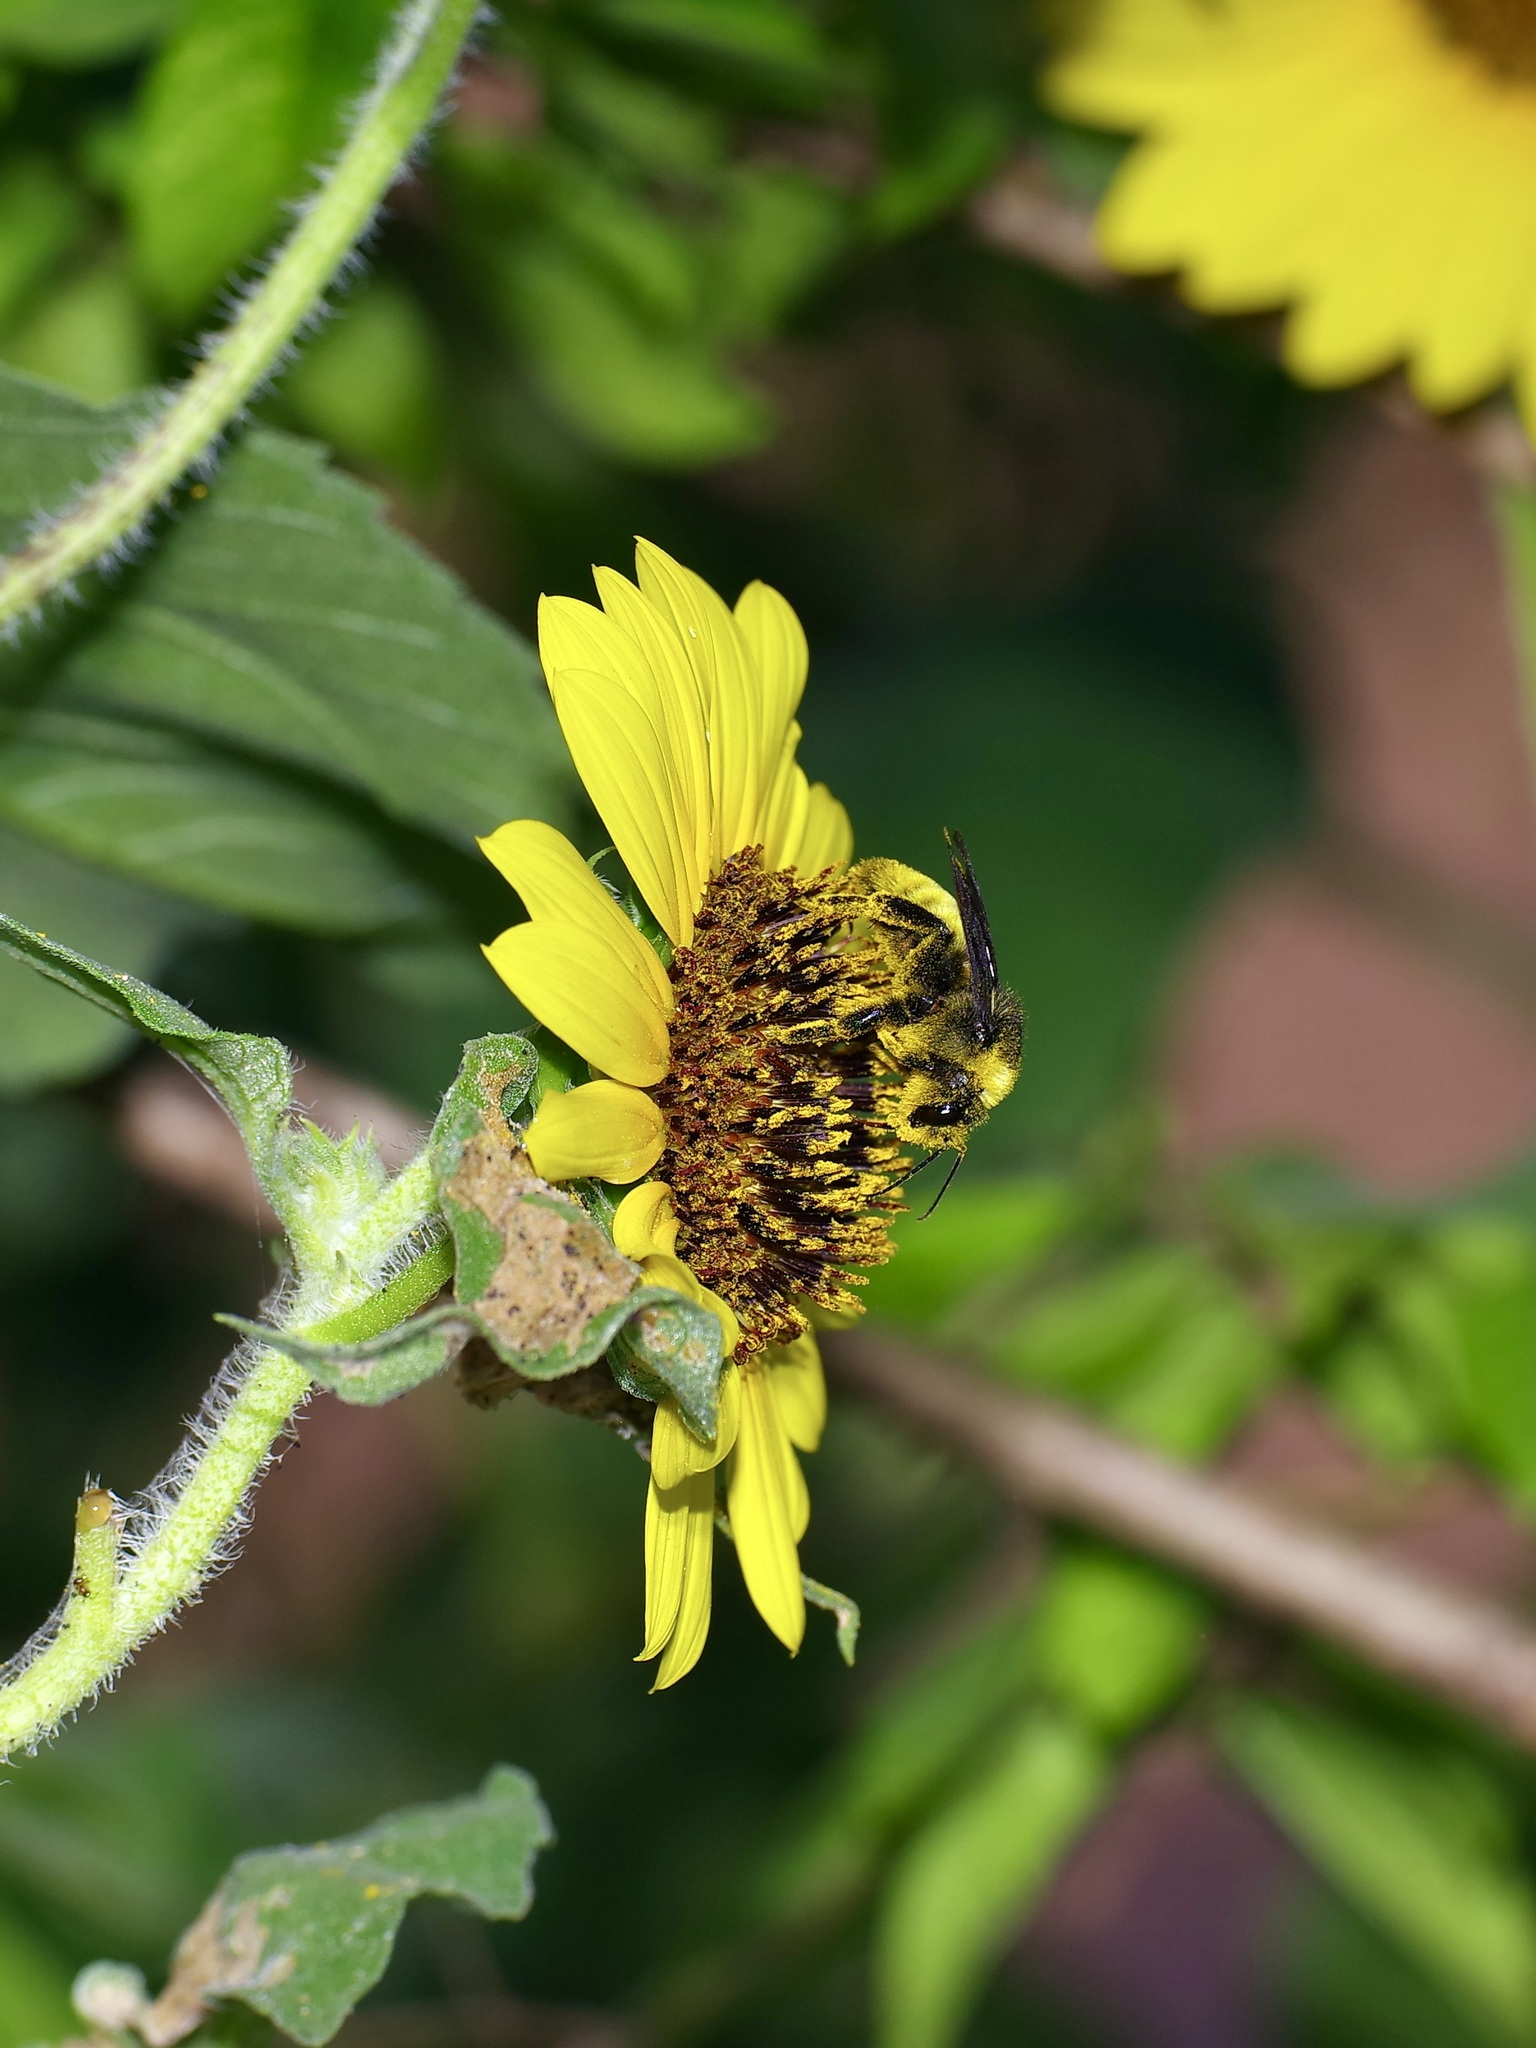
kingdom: Animalia
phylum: Arthropoda
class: Insecta
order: Hymenoptera
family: Apidae
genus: Bombus
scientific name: Bombus pensylvanicus
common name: Bumble bee
